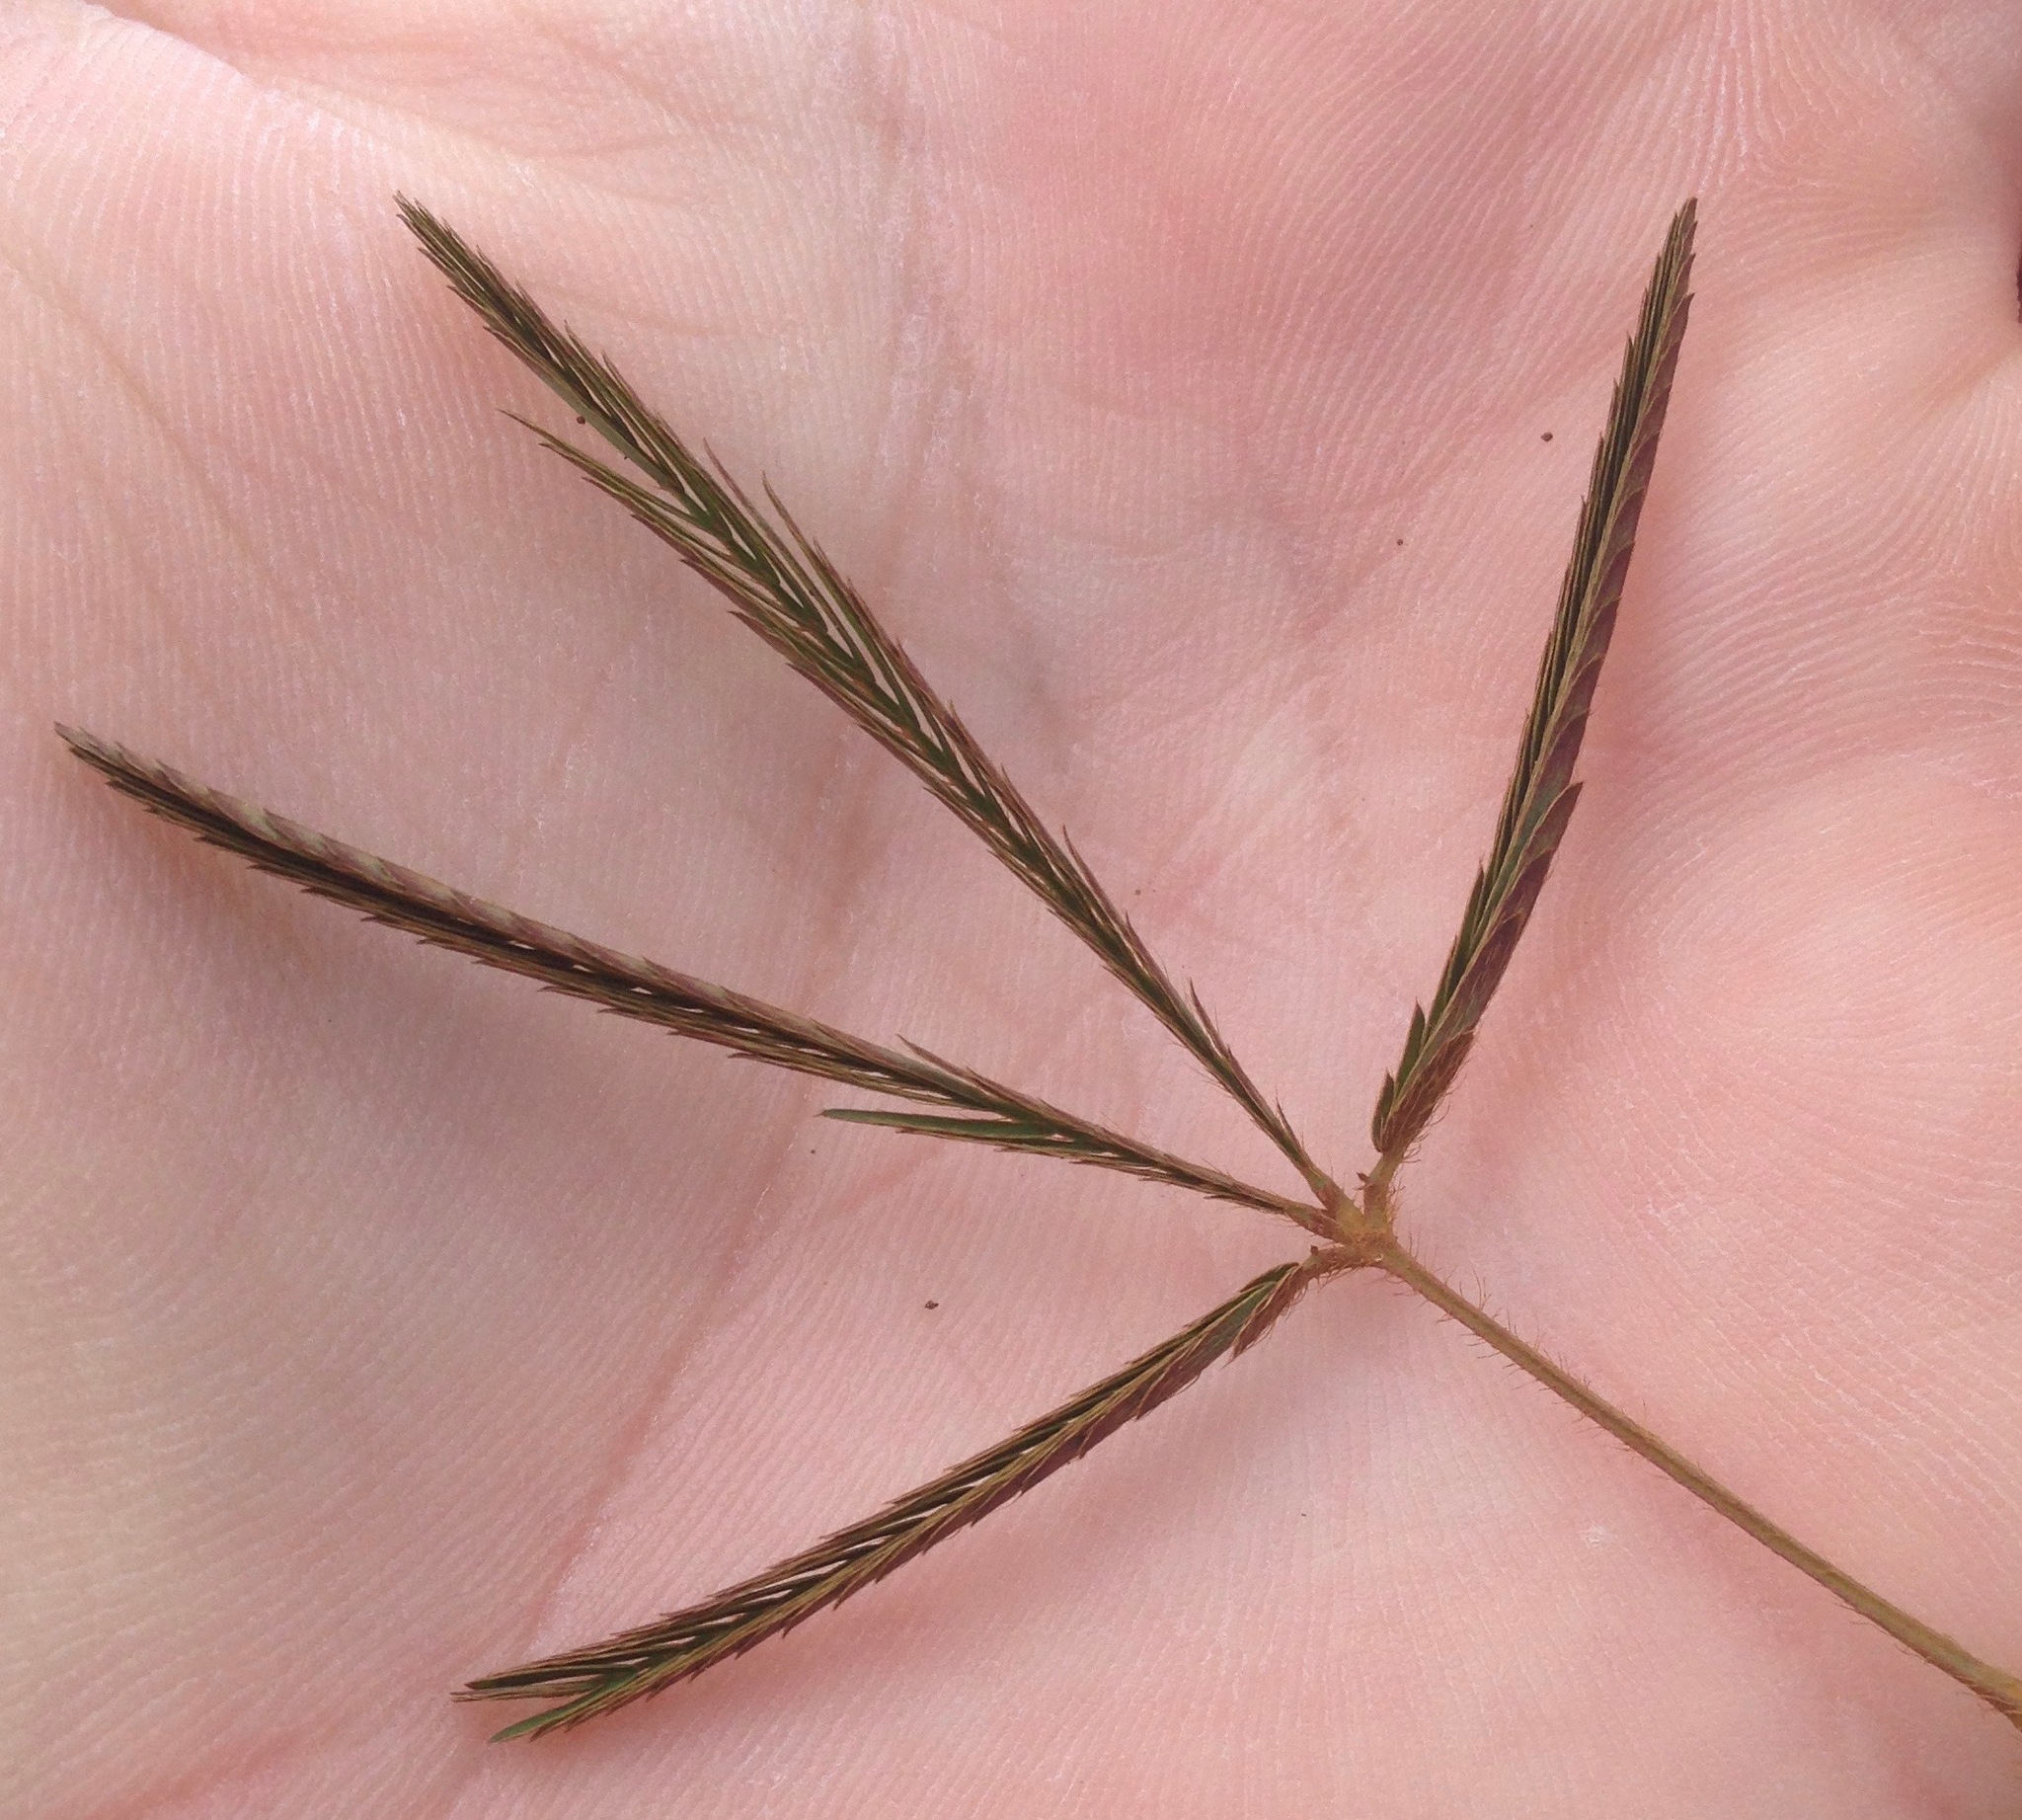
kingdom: Plantae
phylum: Tracheophyta
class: Magnoliopsida
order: Fabales
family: Fabaceae
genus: Mimosa
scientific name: Mimosa pudica
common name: Sensitive plant
